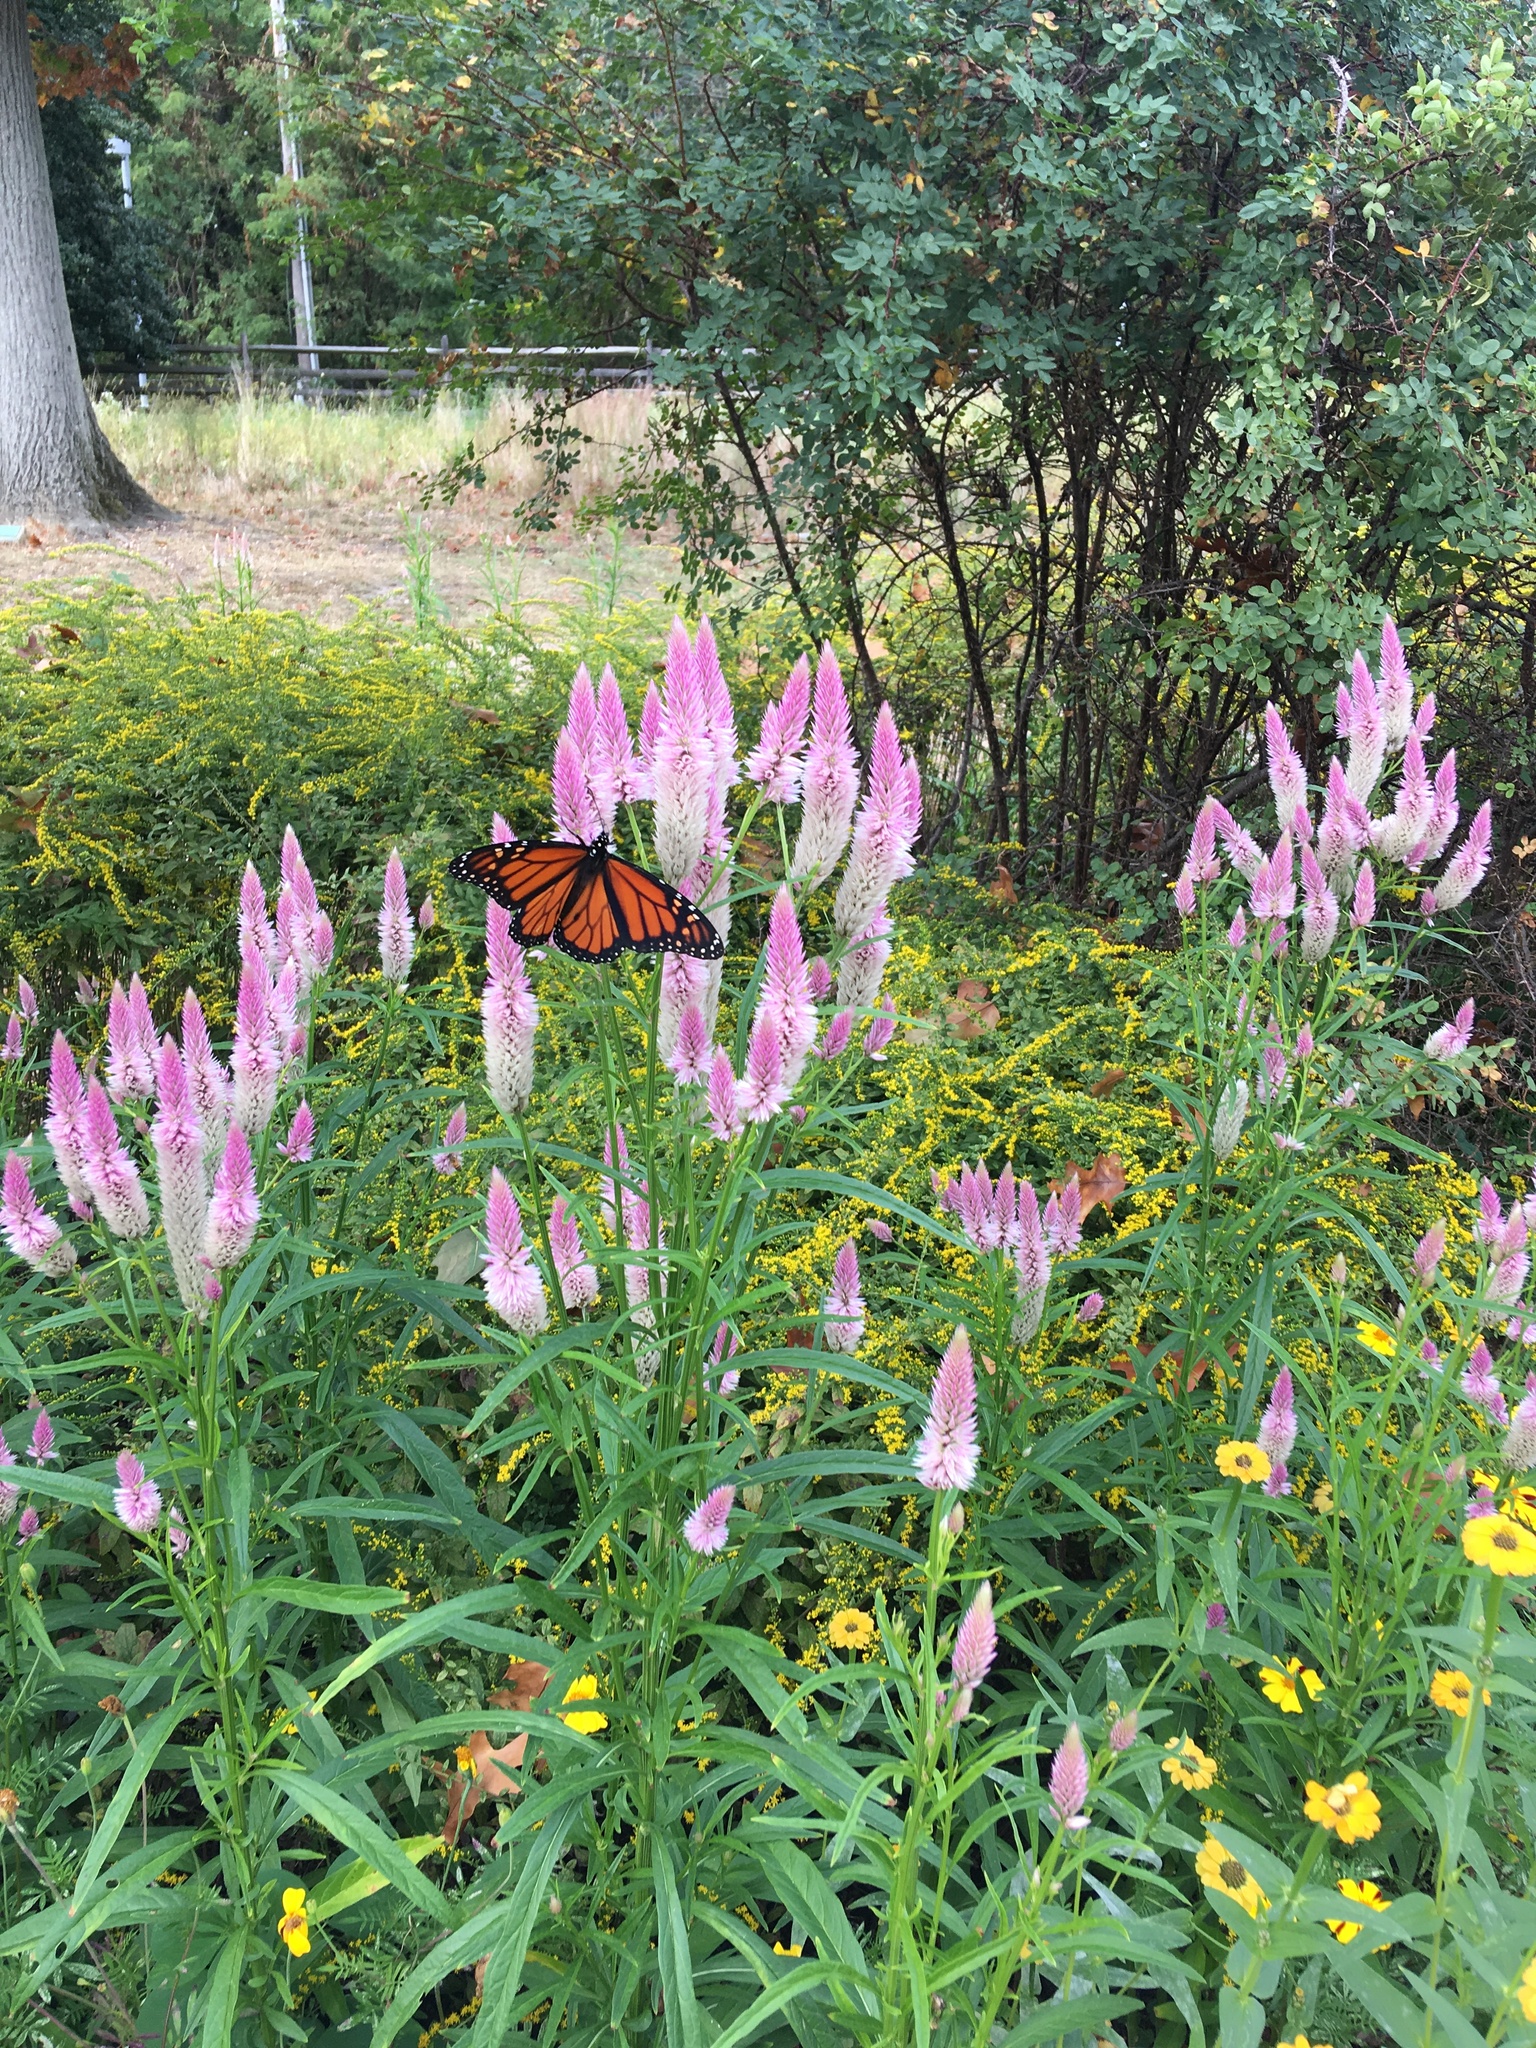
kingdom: Animalia
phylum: Arthropoda
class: Insecta
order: Lepidoptera
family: Nymphalidae
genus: Danaus
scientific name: Danaus plexippus
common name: Monarch
